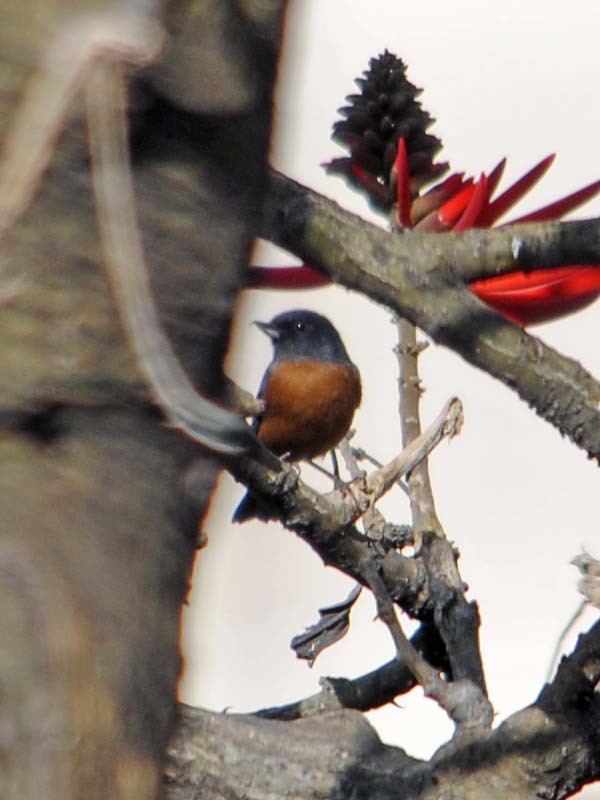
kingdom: Animalia
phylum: Chordata
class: Aves
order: Passeriformes
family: Thraupidae
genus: Diglossa
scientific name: Diglossa baritula
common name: Cinnamon-bellied flowerpiercer
